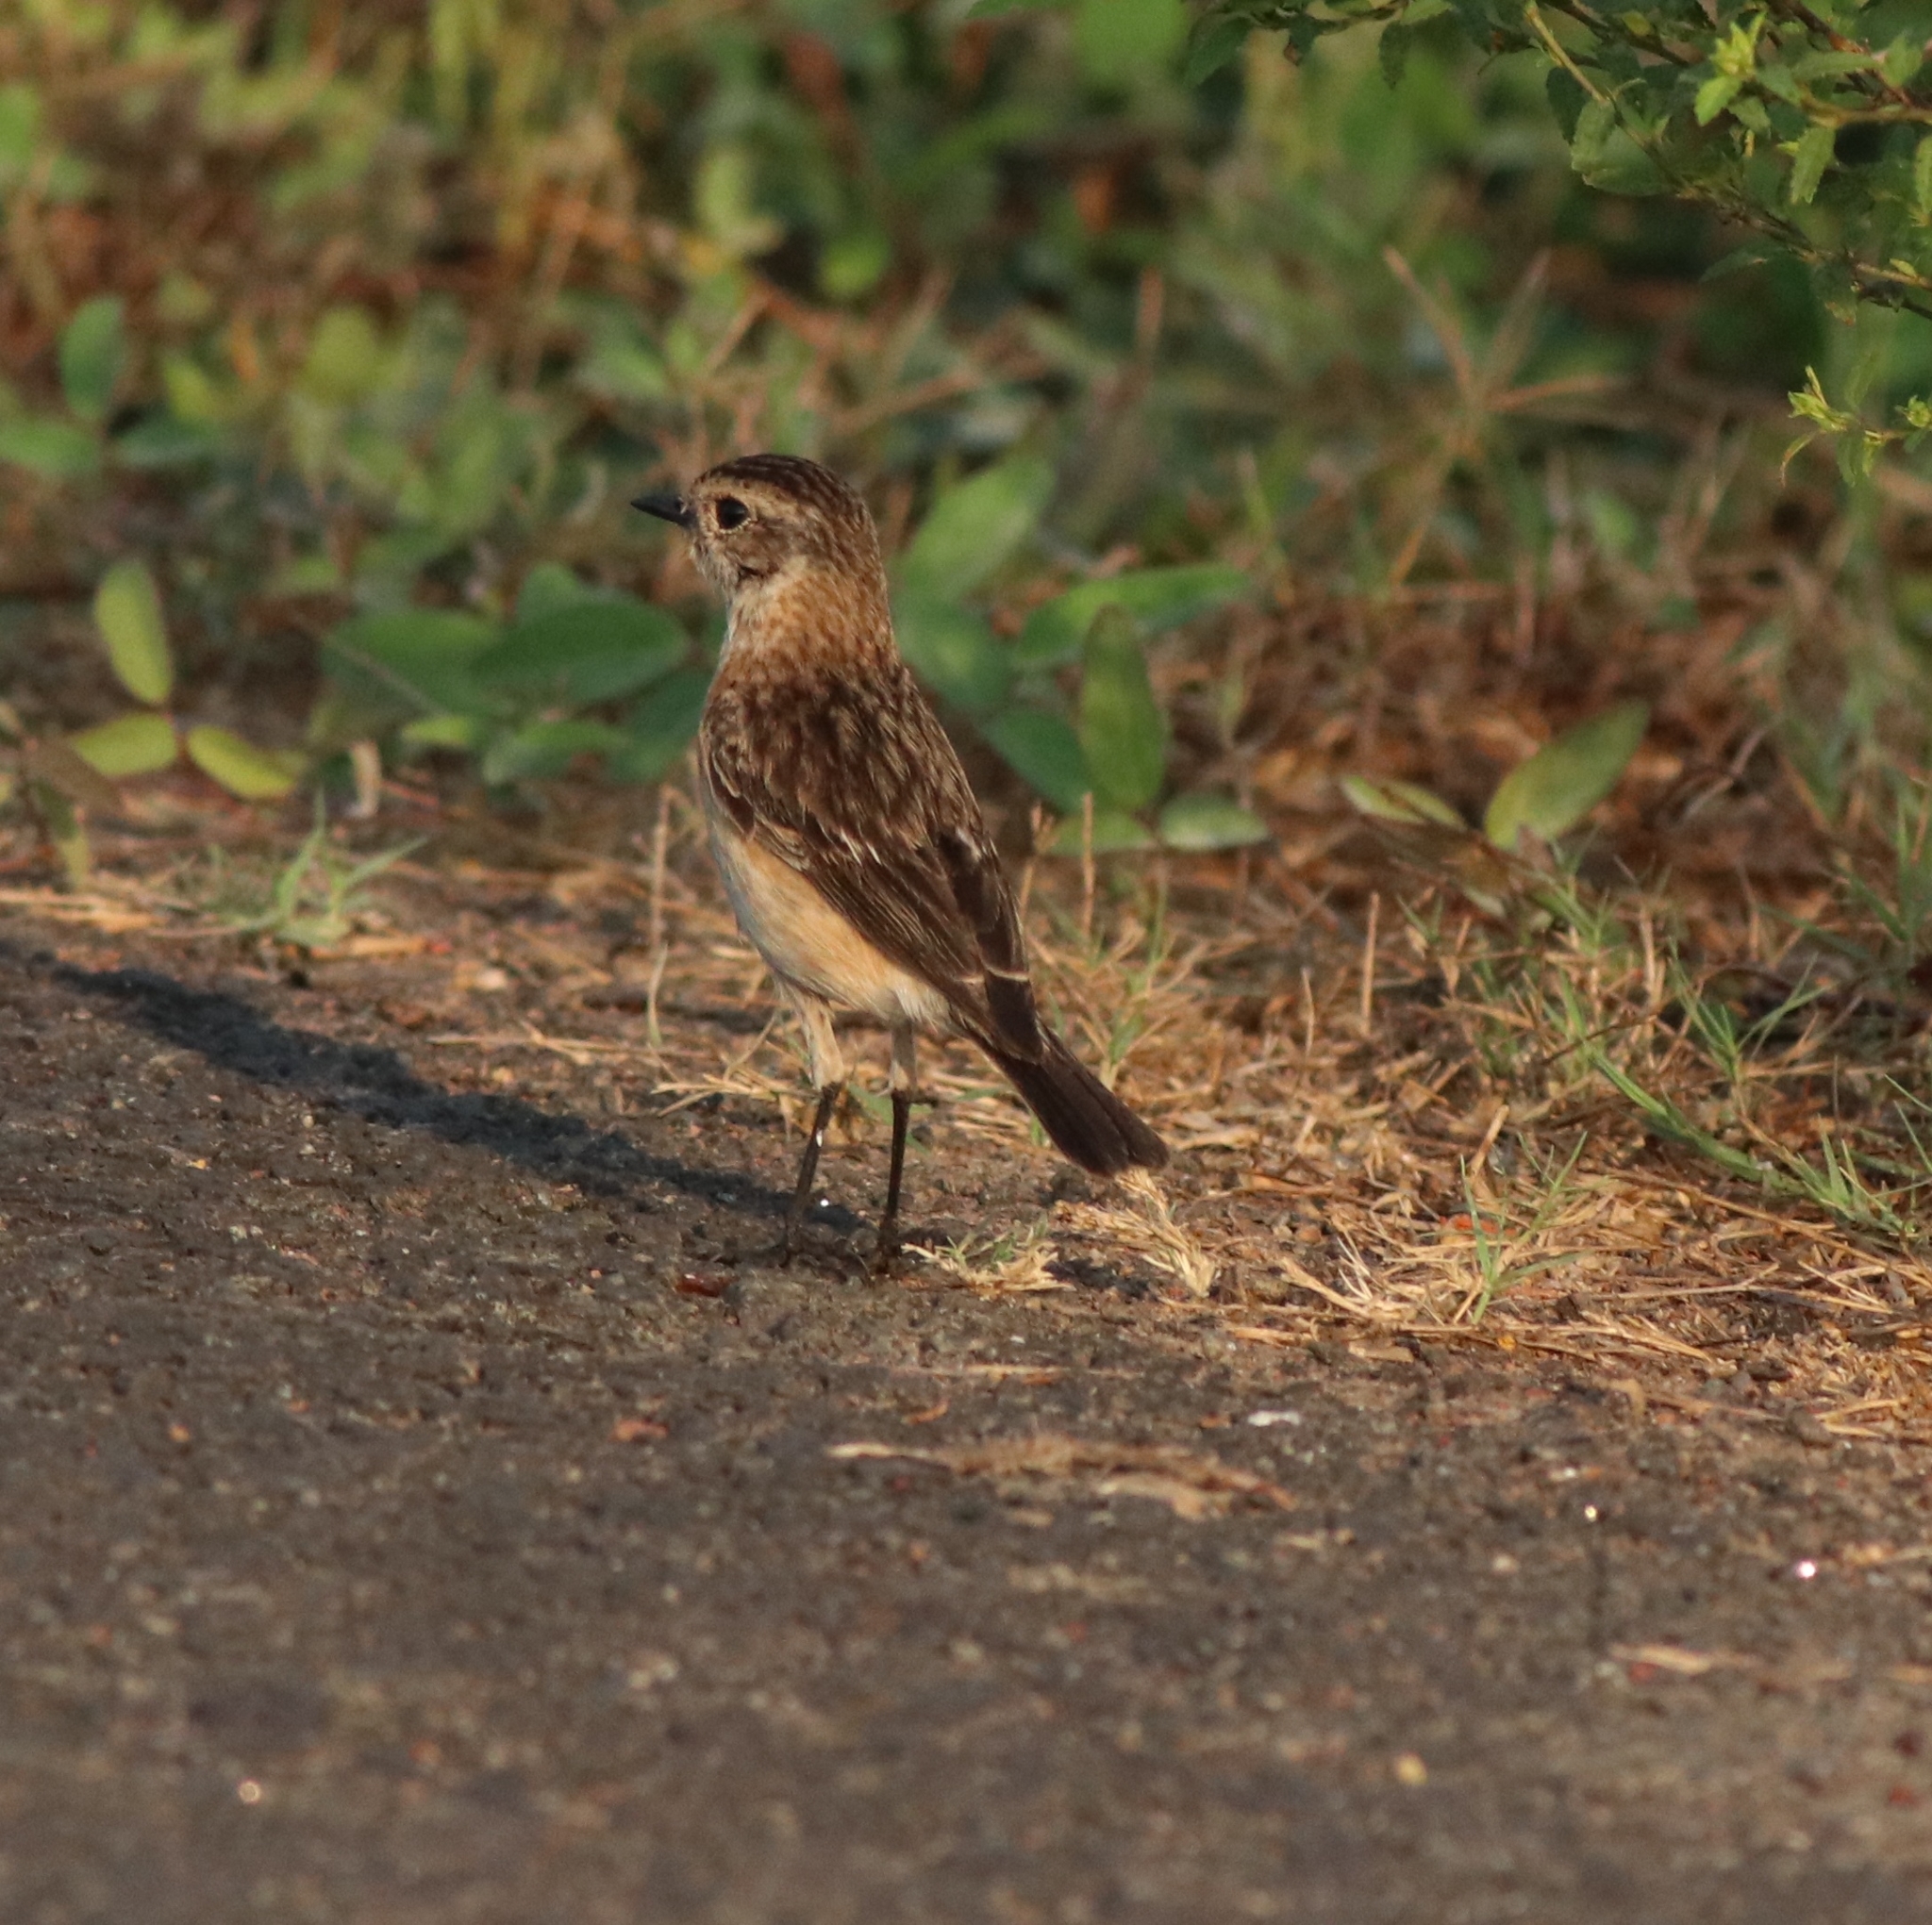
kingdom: Animalia
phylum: Chordata
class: Aves
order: Passeriformes
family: Muscicapidae
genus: Saxicola
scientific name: Saxicola maurus
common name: Siberian stonechat
